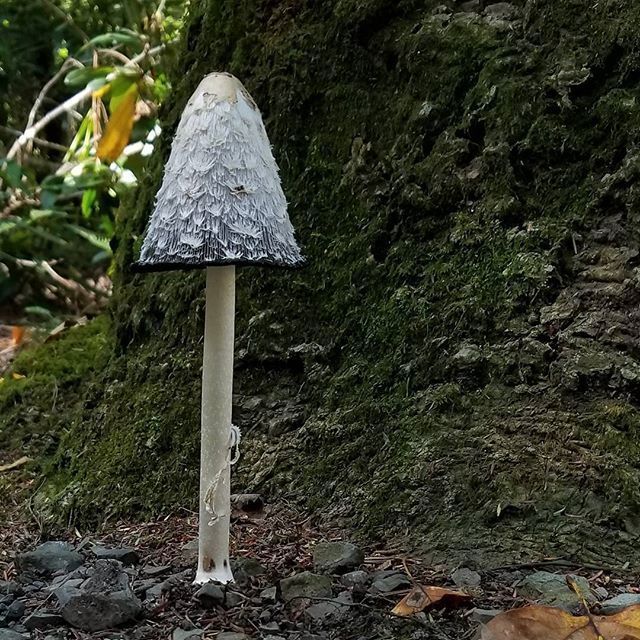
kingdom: Fungi
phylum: Basidiomycota
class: Agaricomycetes
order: Agaricales
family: Agaricaceae
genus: Coprinus
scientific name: Coprinus comatus
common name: Lawyer's wig
